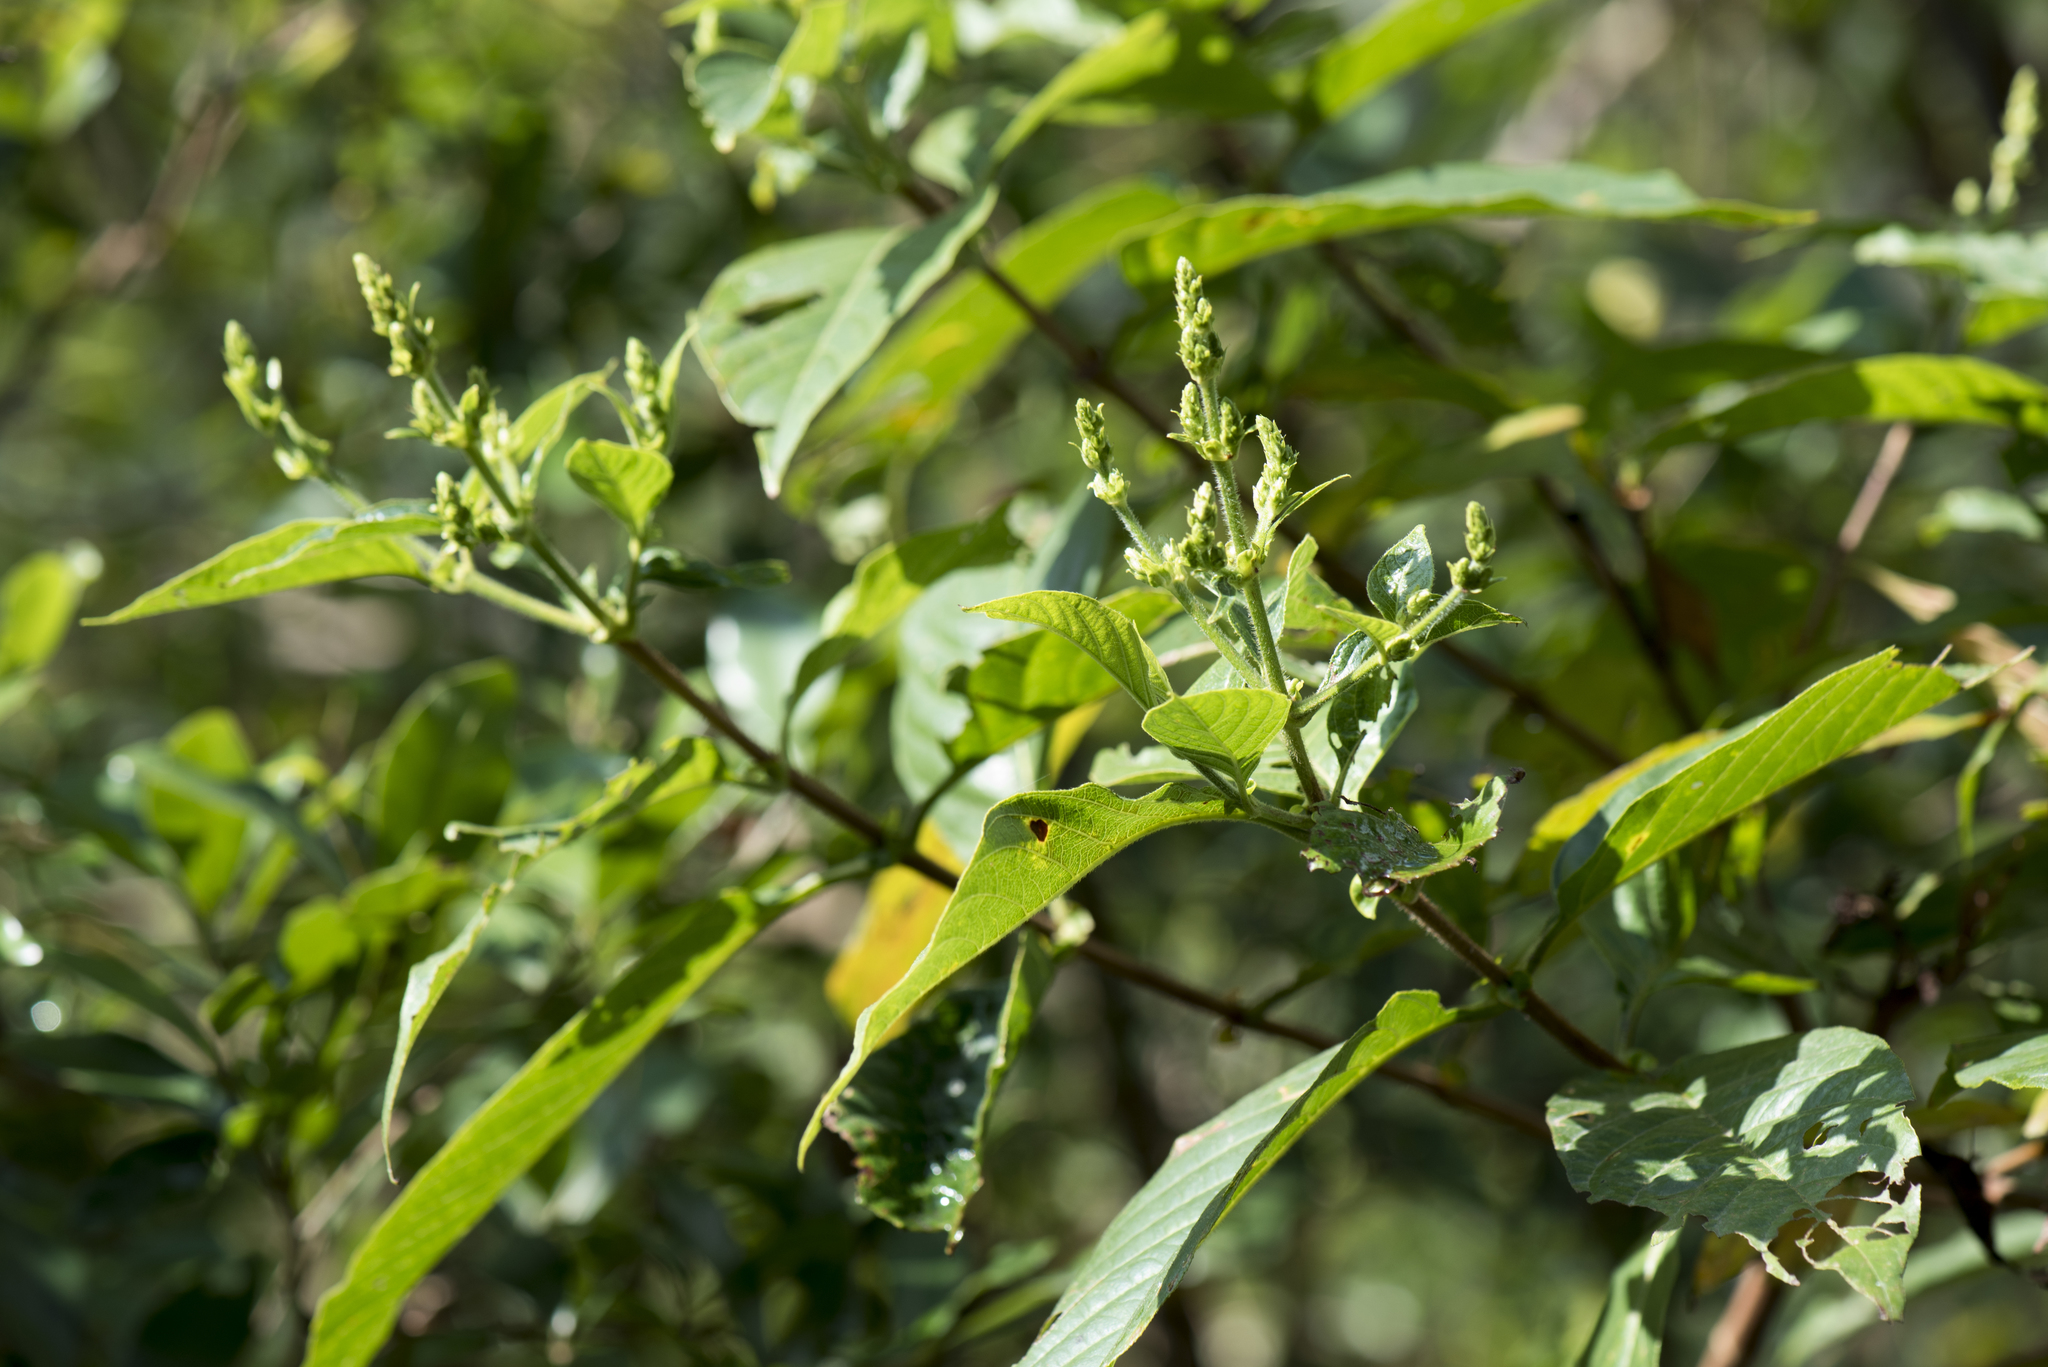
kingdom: Plantae
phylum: Tracheophyta
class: Magnoliopsida
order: Gentianales
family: Rubiaceae
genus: Wendlandia
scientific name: Wendlandia uvariifolia
